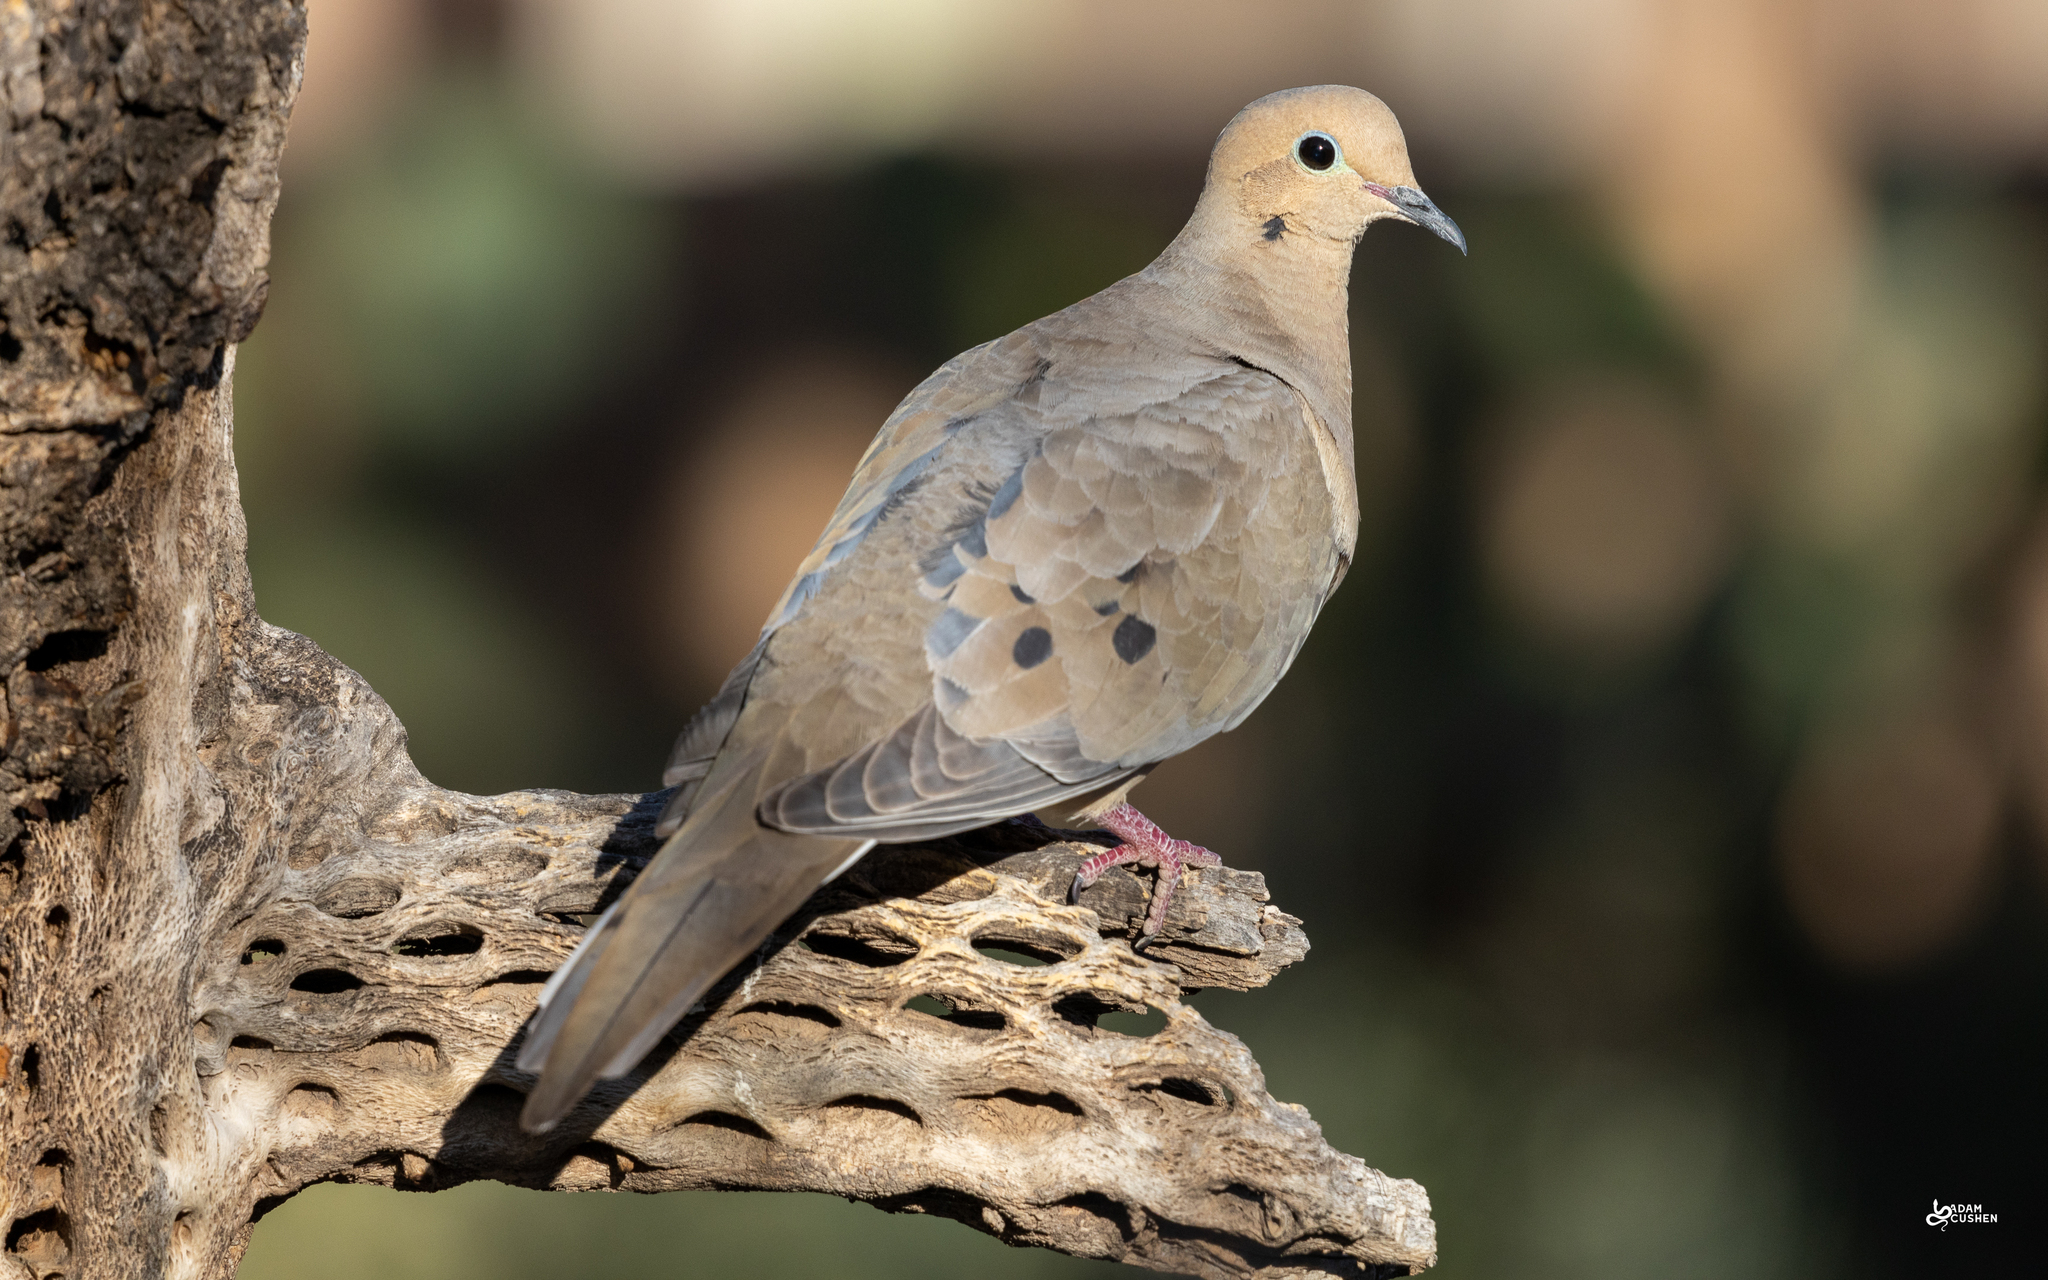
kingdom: Animalia
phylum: Chordata
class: Aves
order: Columbiformes
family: Columbidae
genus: Zenaida
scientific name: Zenaida macroura
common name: Mourning dove
